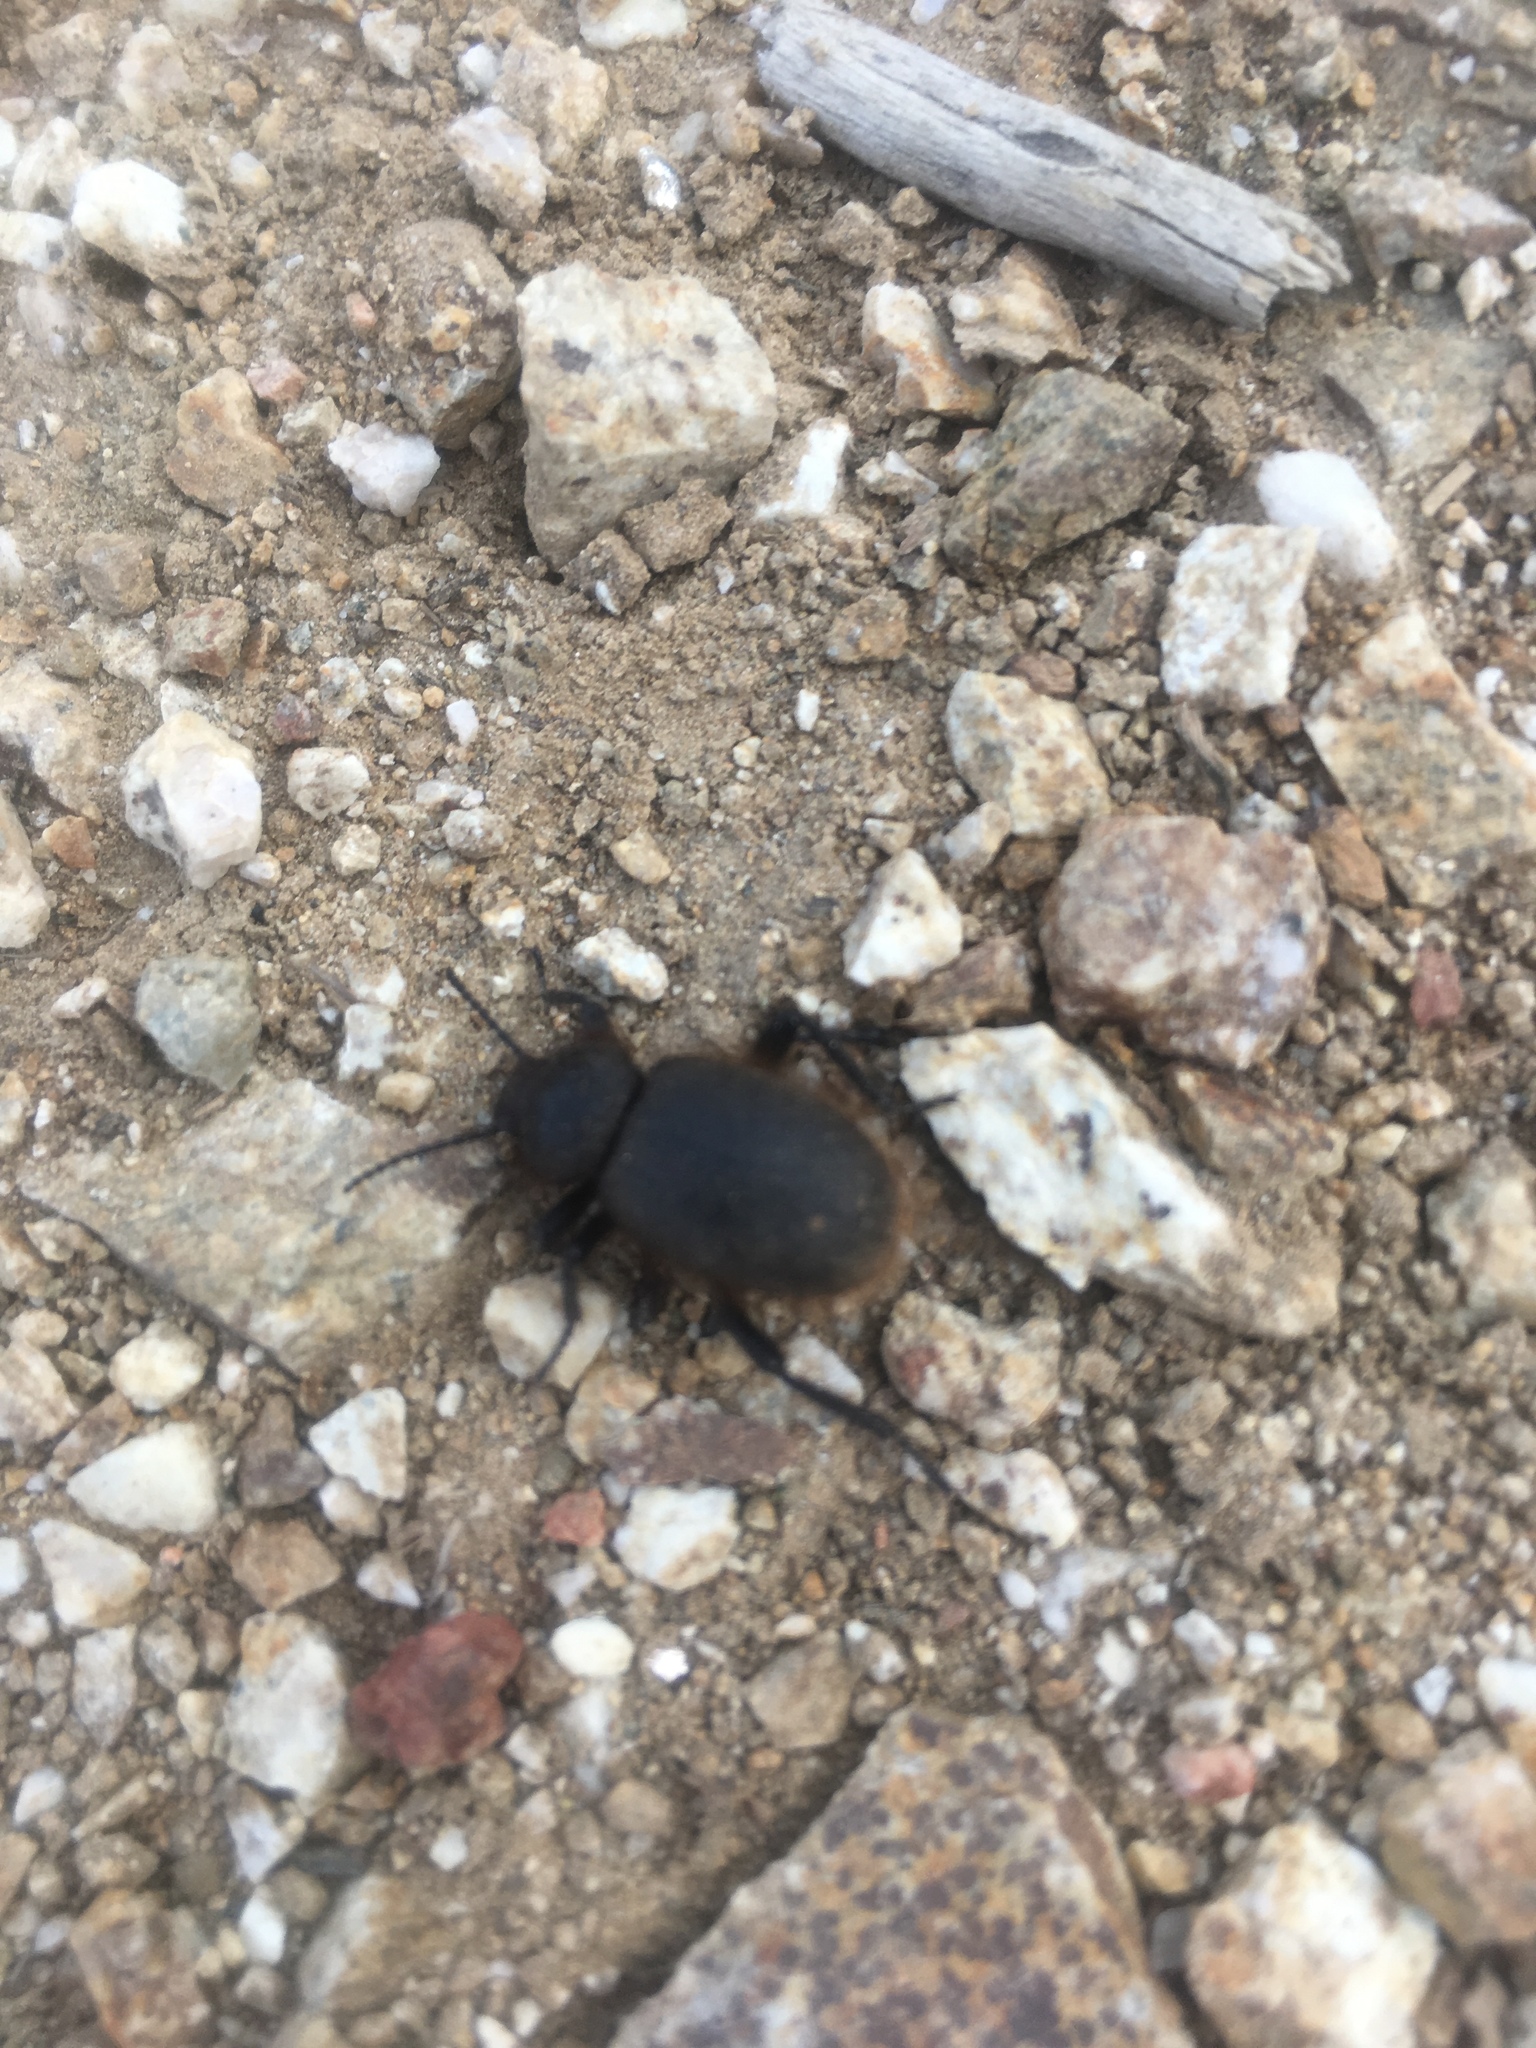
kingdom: Animalia
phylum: Arthropoda
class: Insecta
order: Coleoptera
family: Tenebrionidae
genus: Eleodes
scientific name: Eleodes osculans
